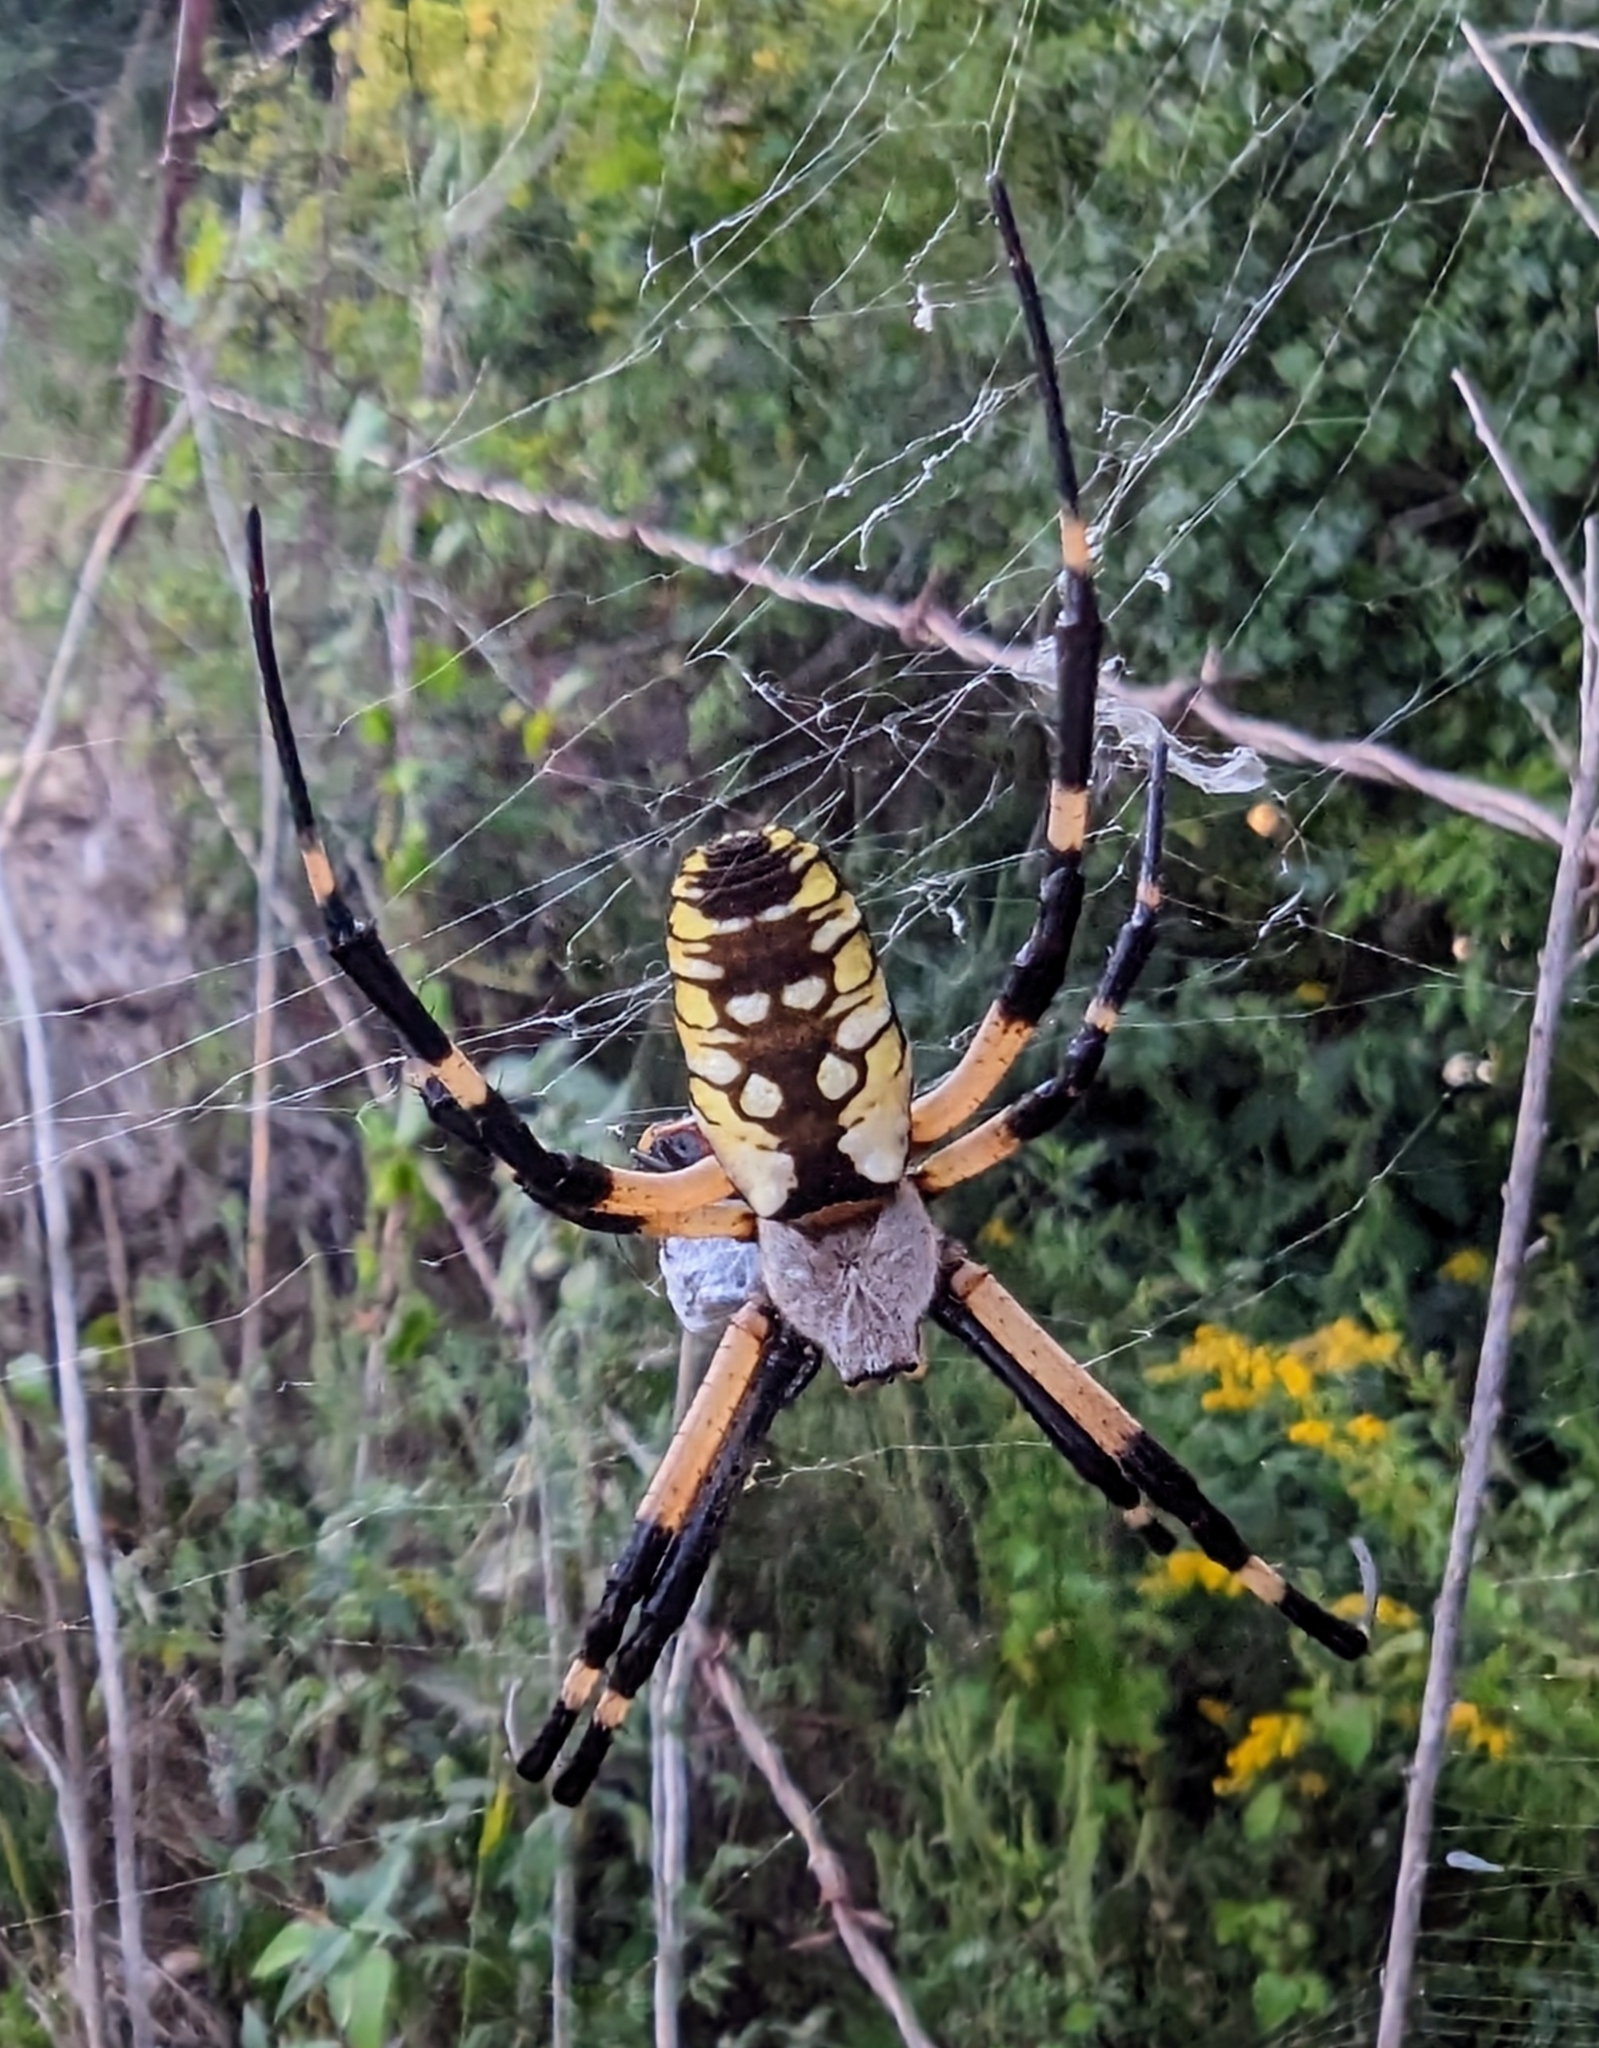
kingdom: Animalia
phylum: Arthropoda
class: Arachnida
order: Araneae
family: Araneidae
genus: Argiope
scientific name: Argiope aurantia
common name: Orb weavers
